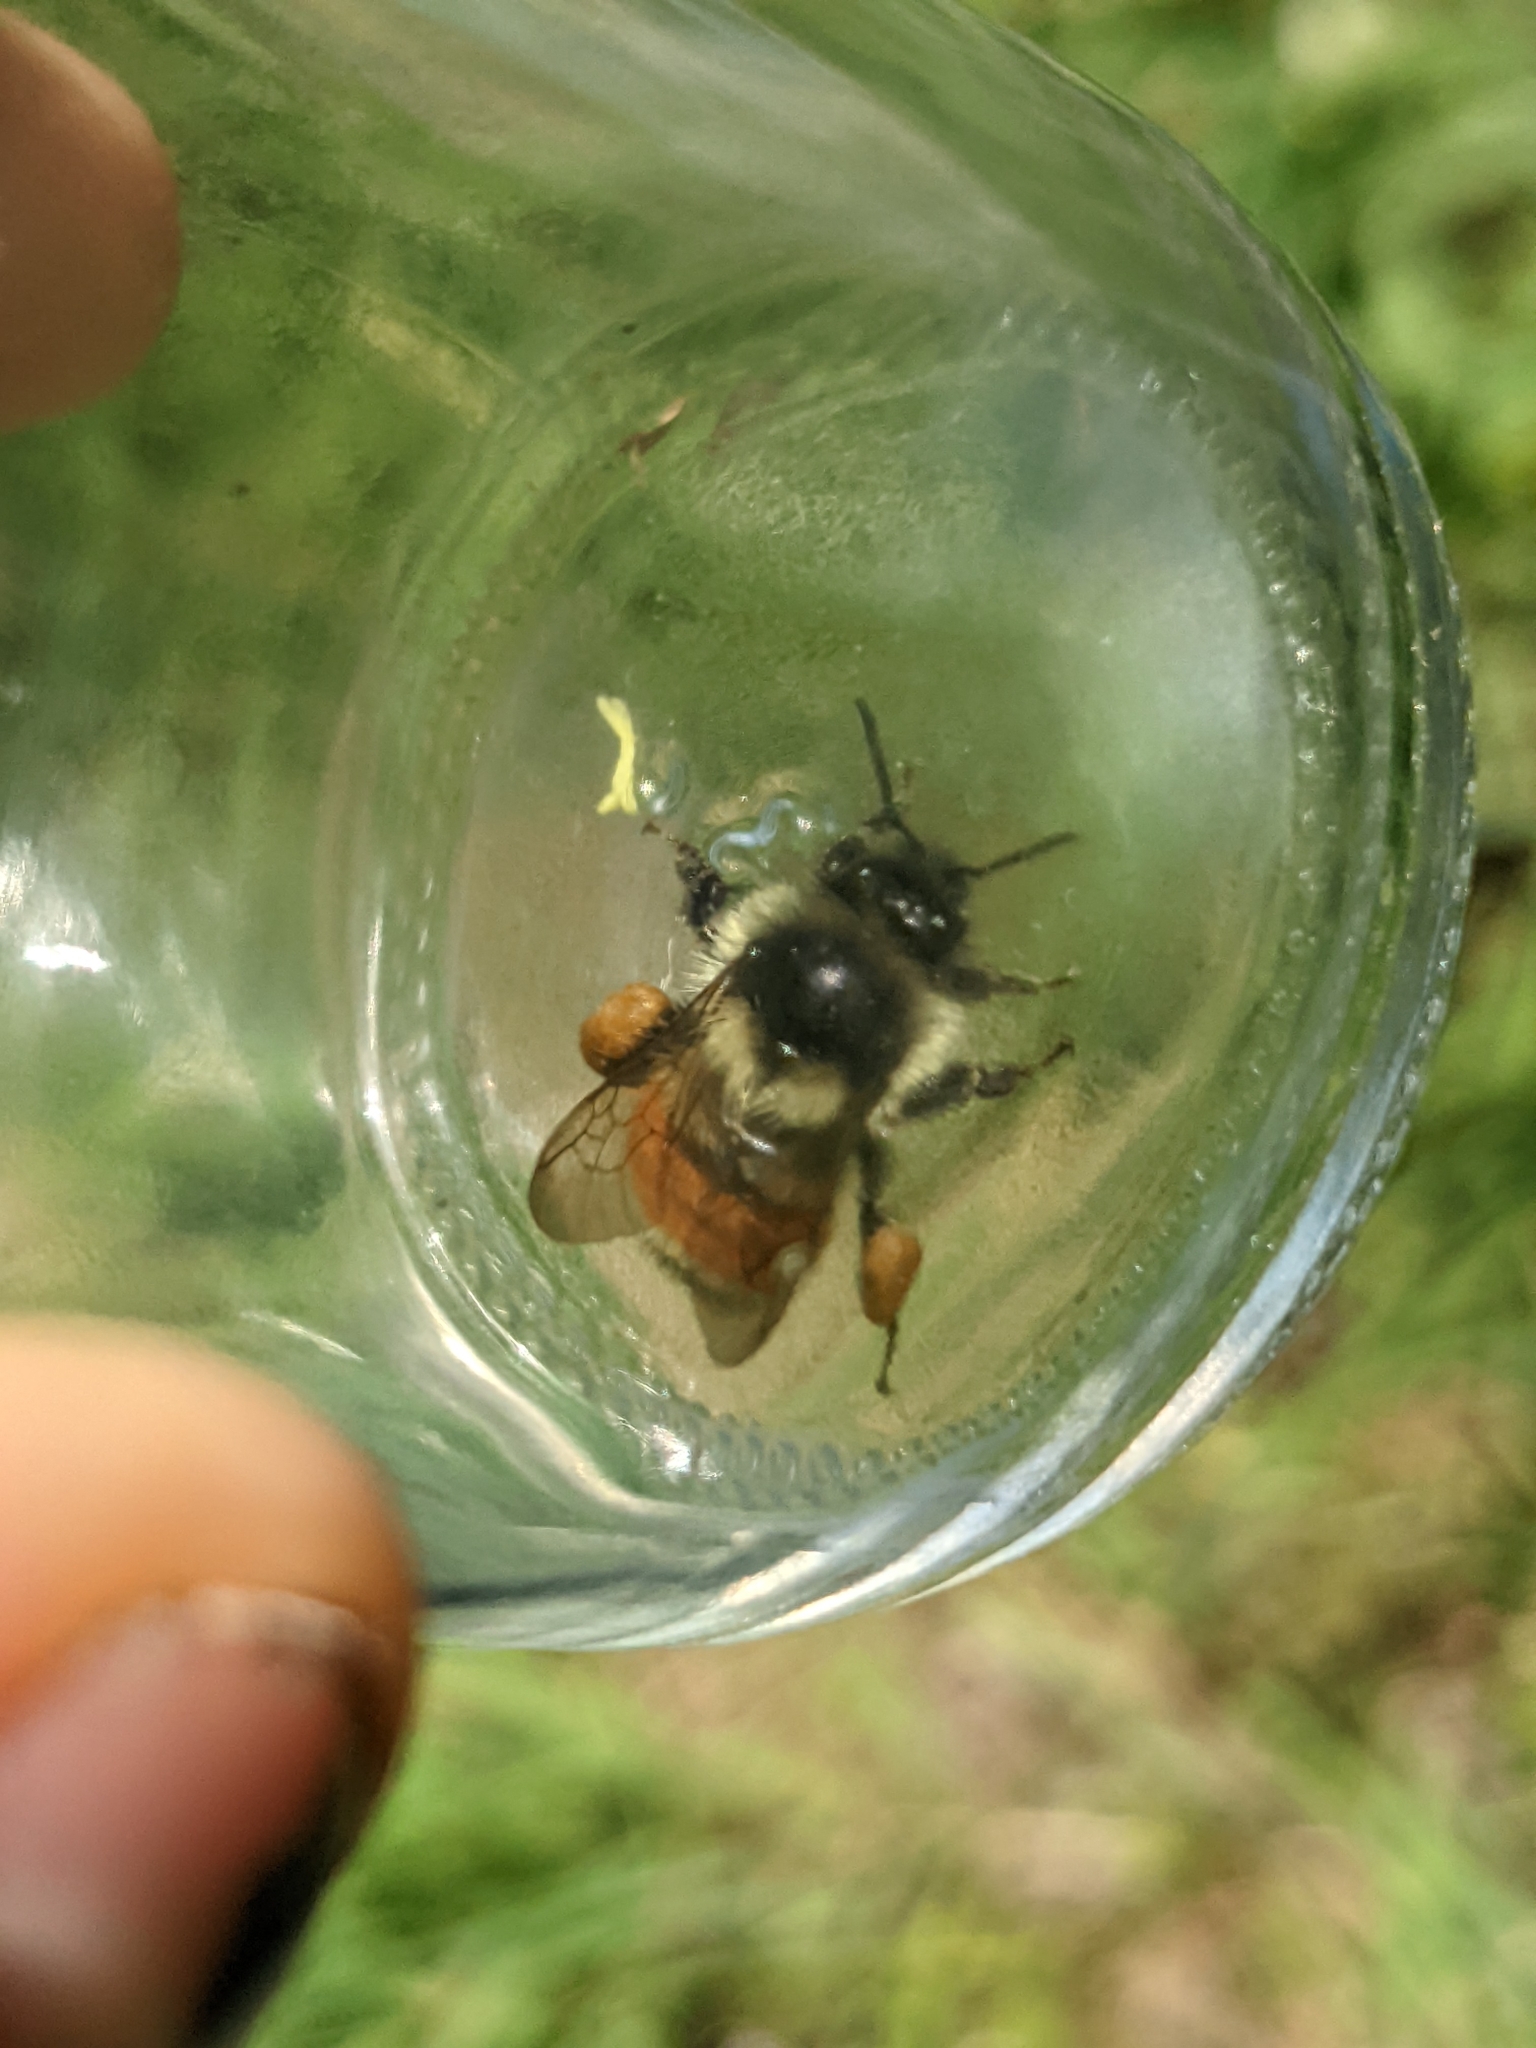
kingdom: Animalia
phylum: Arthropoda
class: Insecta
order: Hymenoptera
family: Apidae
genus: Bombus
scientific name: Bombus ternarius
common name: Tri-colored bumble bee
